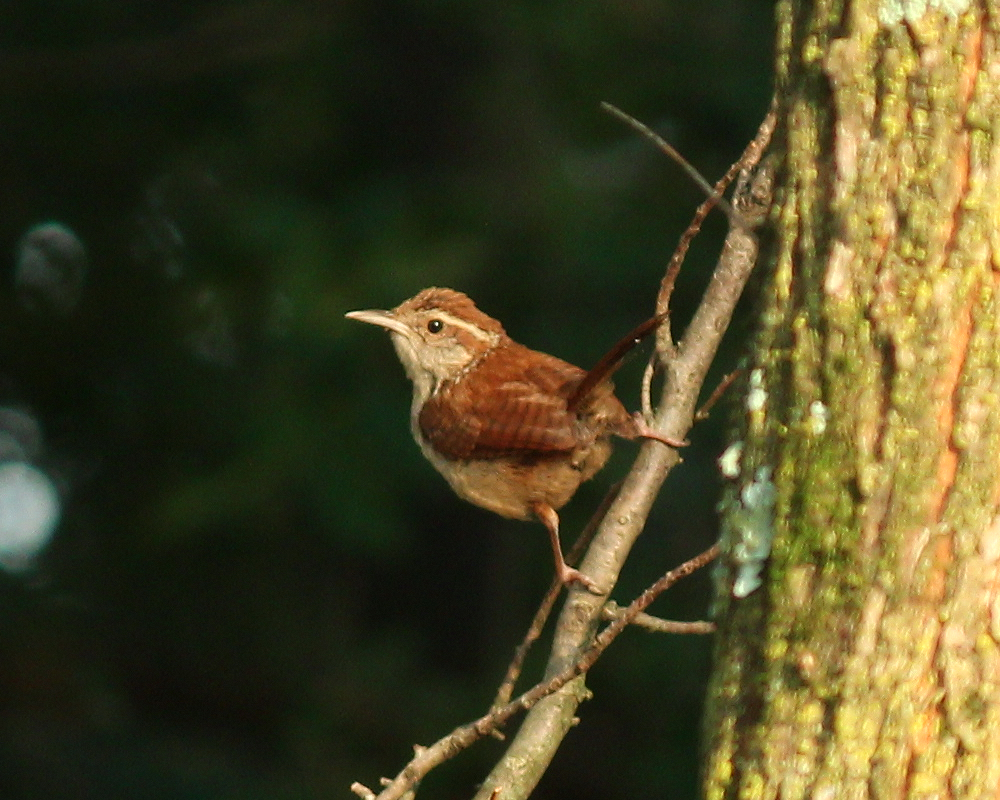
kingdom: Animalia
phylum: Chordata
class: Aves
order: Passeriformes
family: Troglodytidae
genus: Thryothorus
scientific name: Thryothorus ludovicianus
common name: Carolina wren
